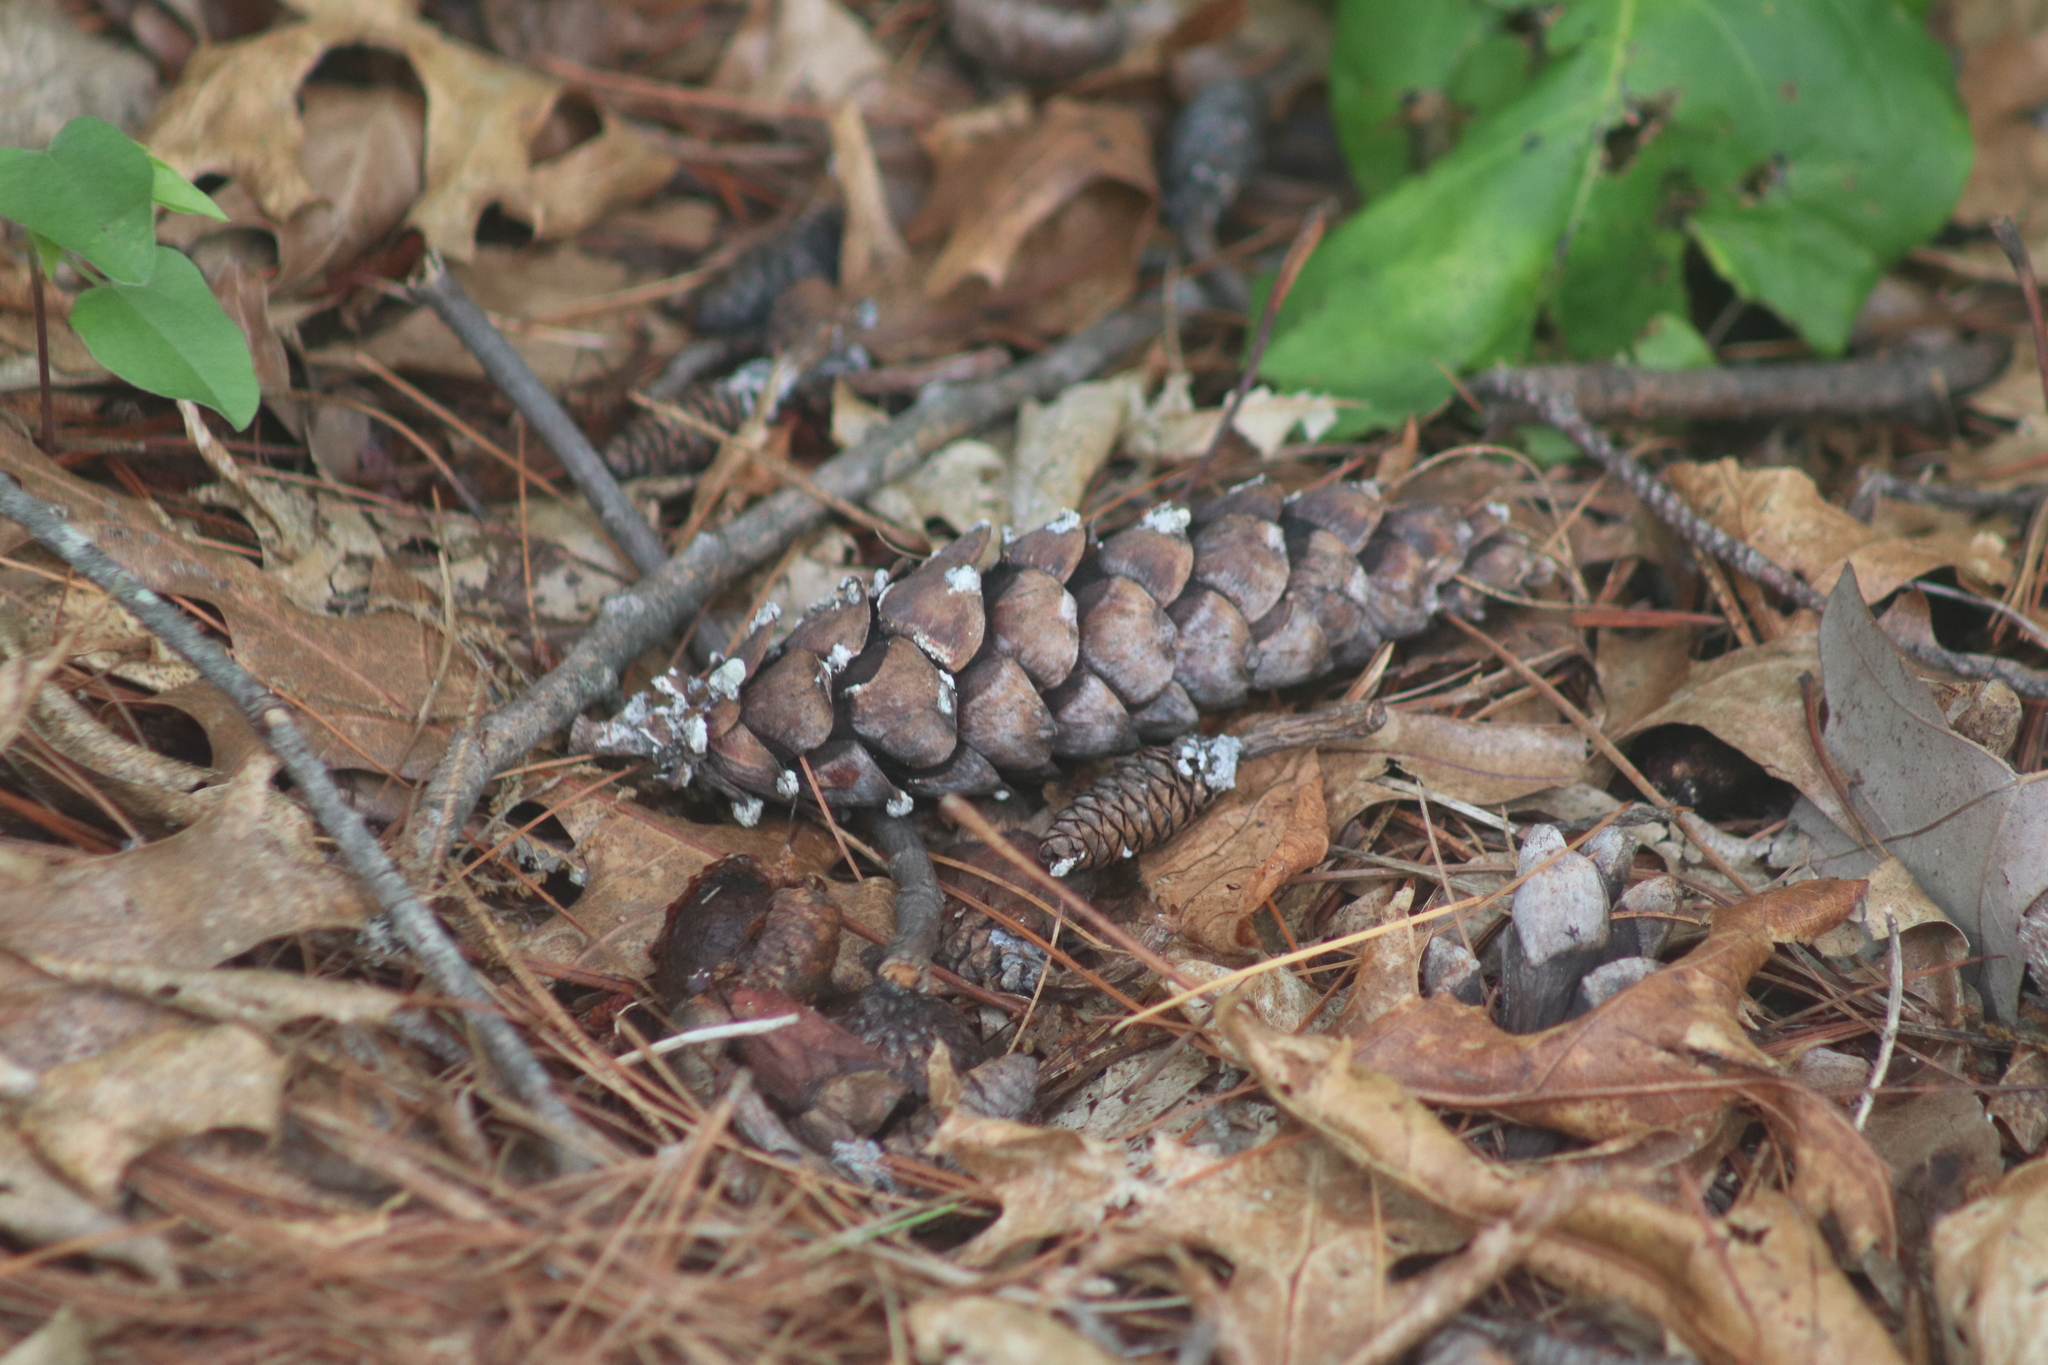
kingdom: Plantae
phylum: Tracheophyta
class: Pinopsida
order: Pinales
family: Pinaceae
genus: Pinus
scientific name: Pinus strobus
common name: Weymouth pine
